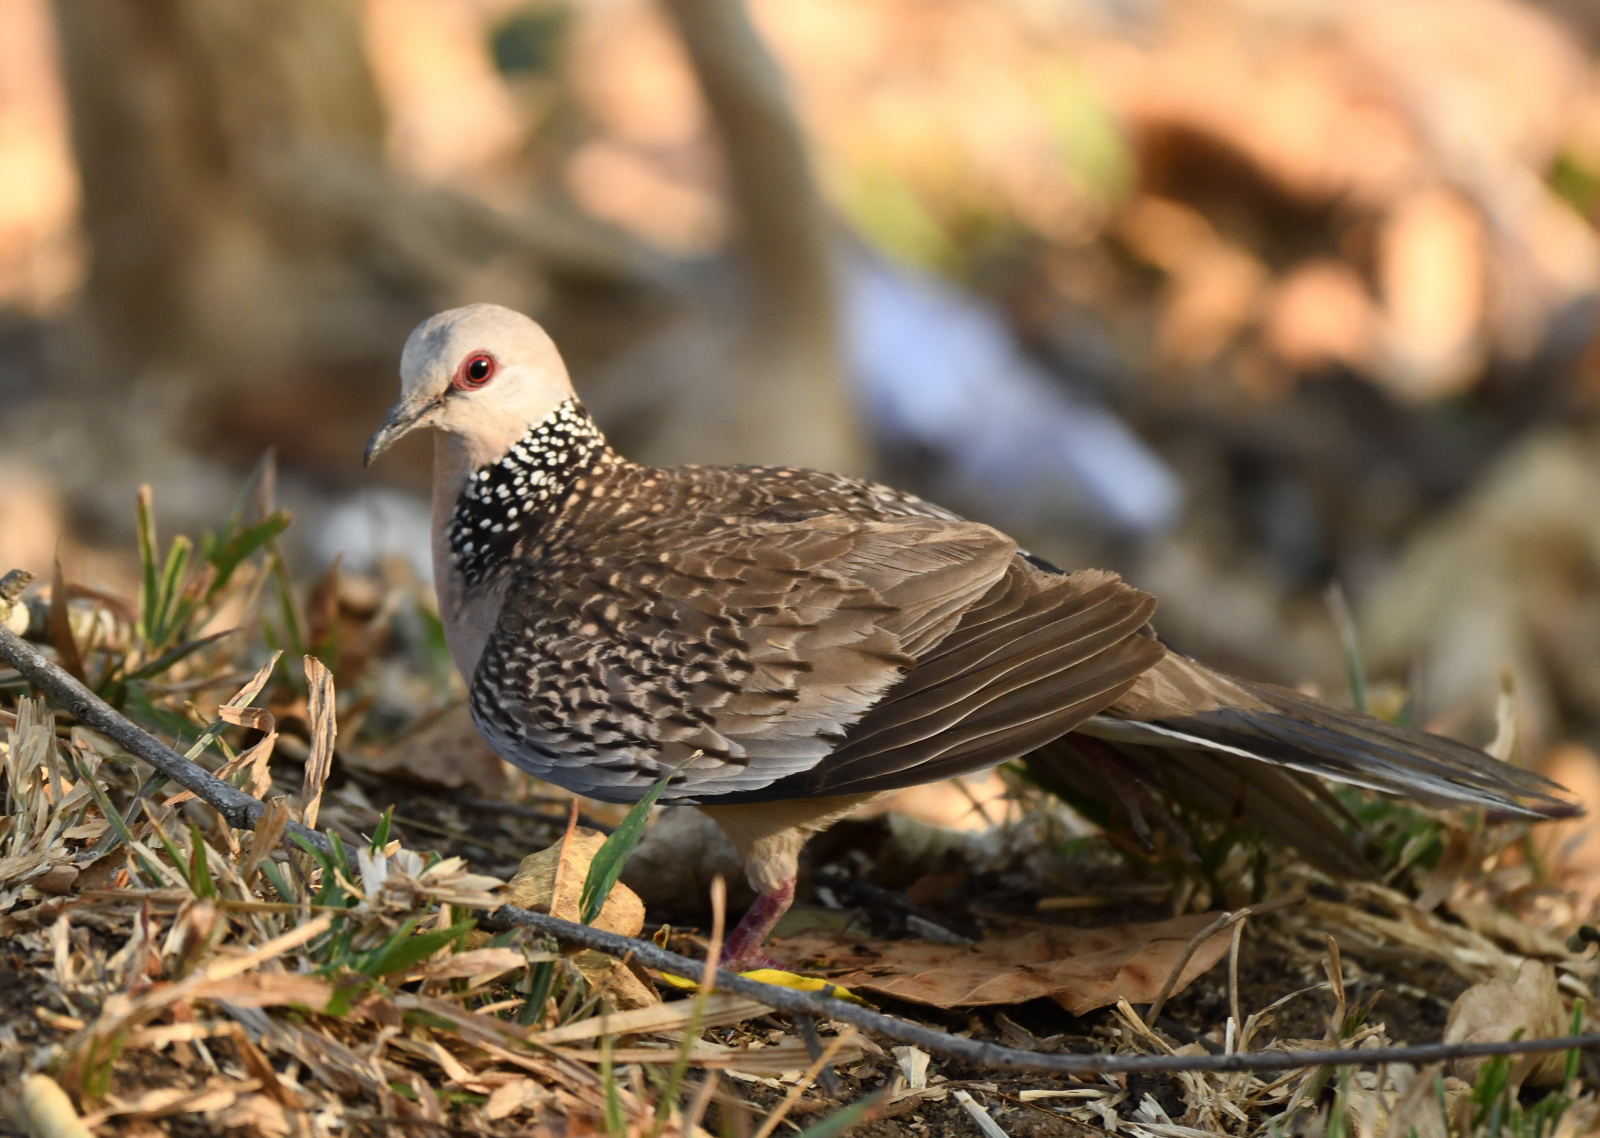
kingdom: Animalia
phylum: Chordata
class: Aves
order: Columbiformes
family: Columbidae
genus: Spilopelia
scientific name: Spilopelia chinensis
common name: Spotted dove
